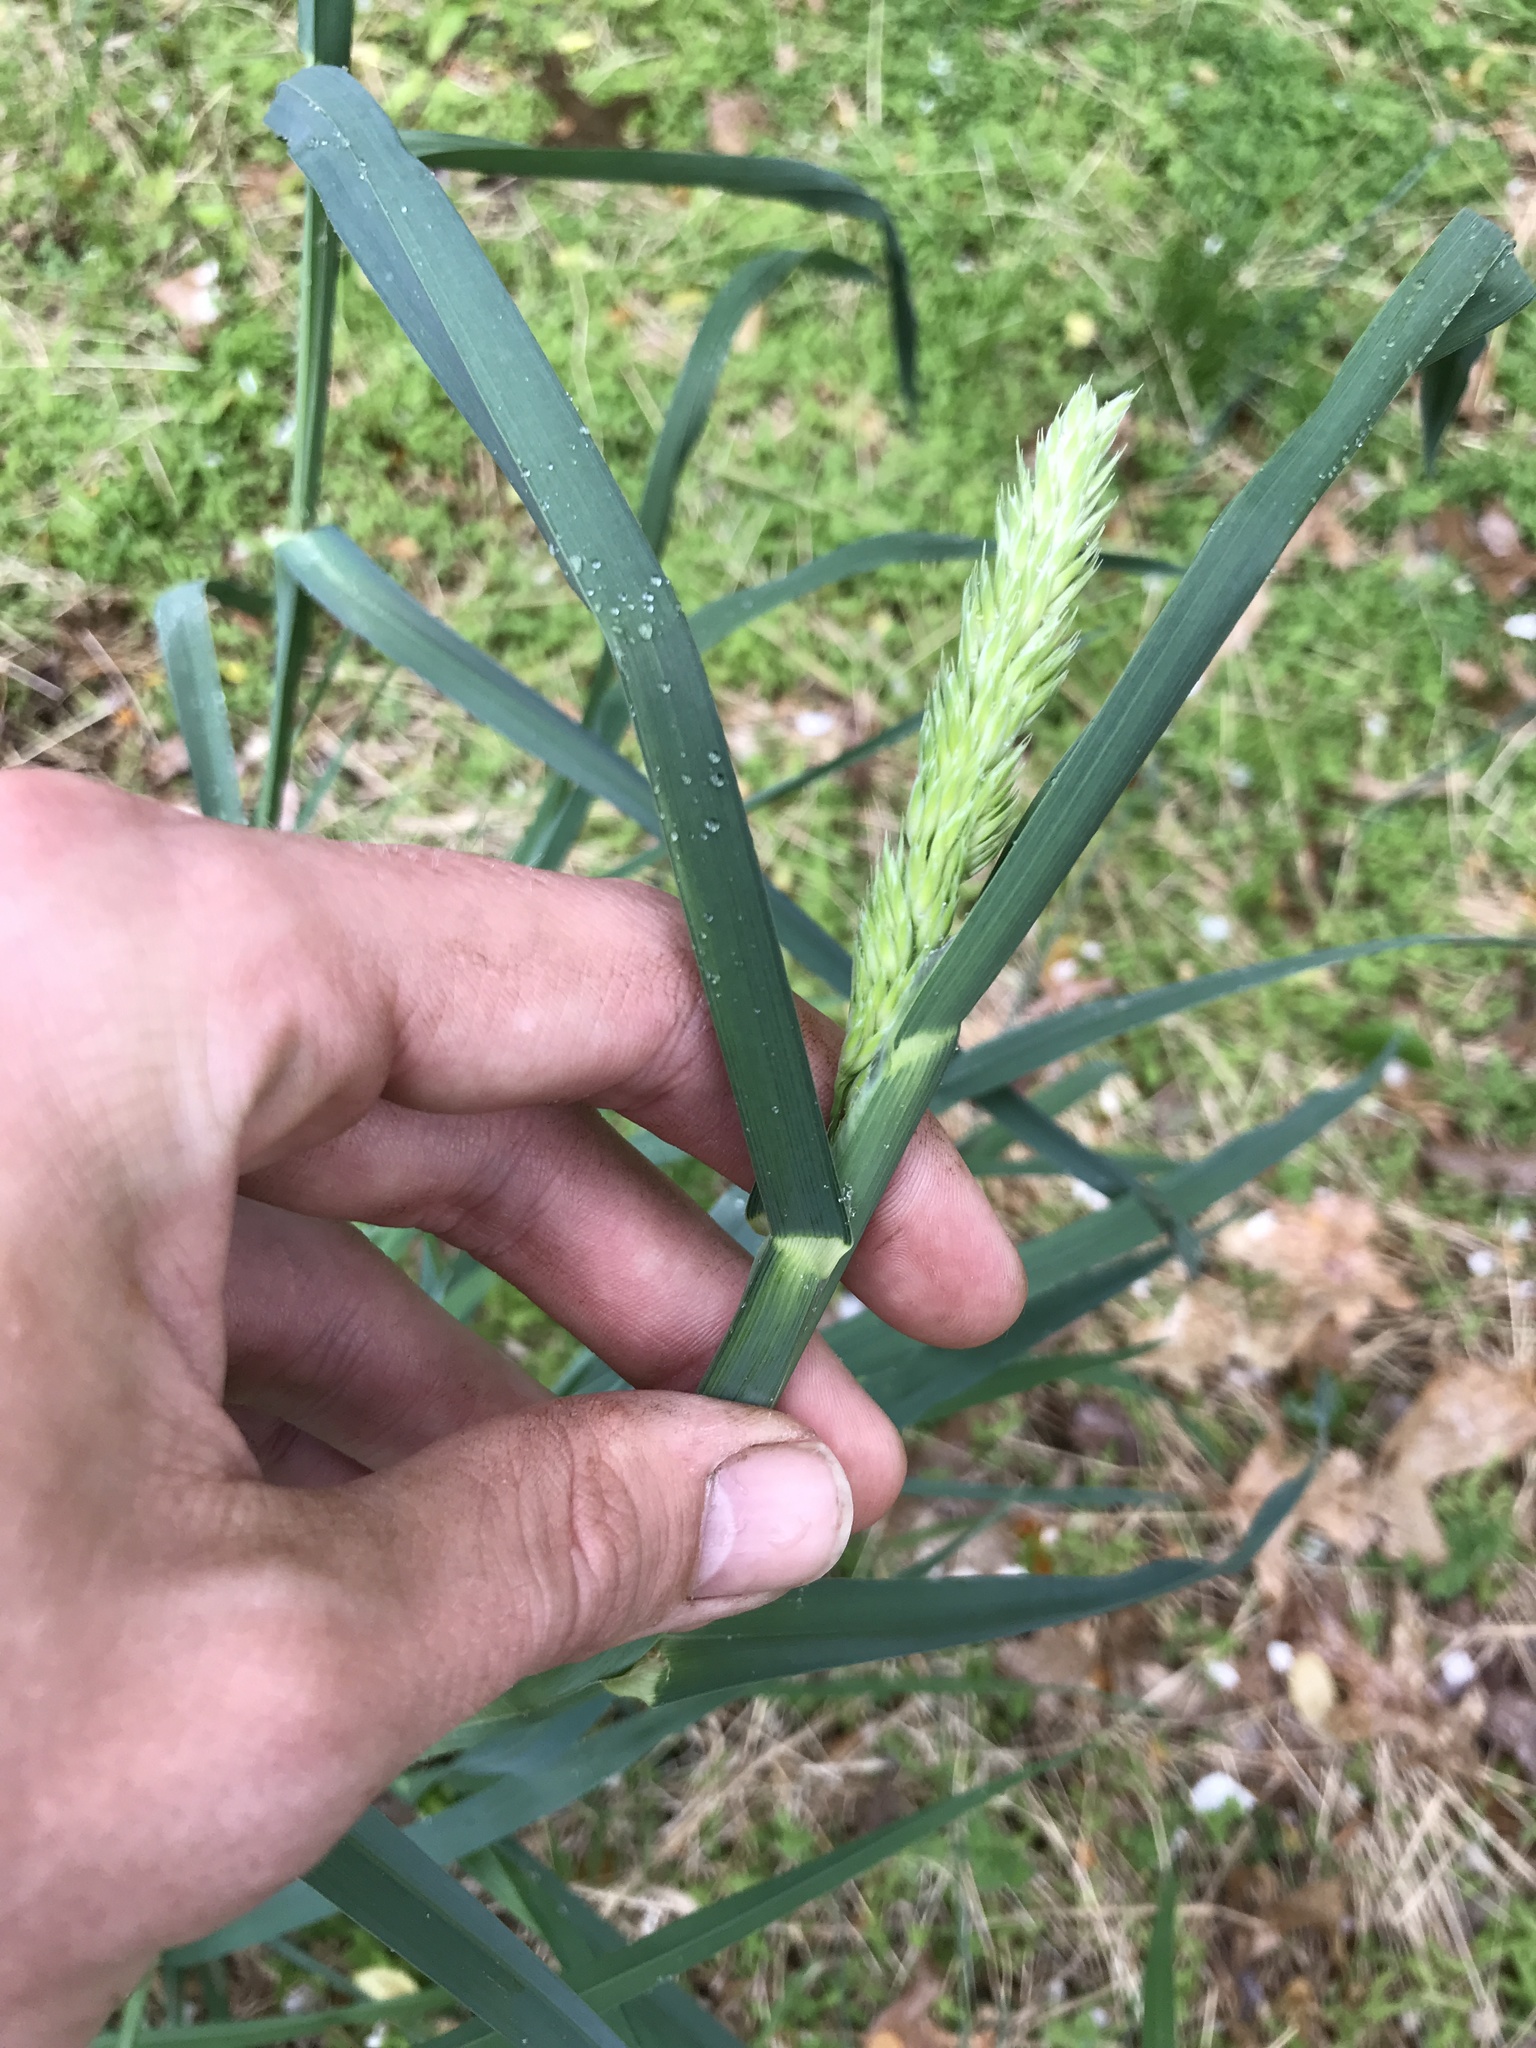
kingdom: Plantae
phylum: Tracheophyta
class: Liliopsida
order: Poales
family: Poaceae
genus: Dactylis
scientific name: Dactylis glomerata
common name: Orchardgrass
